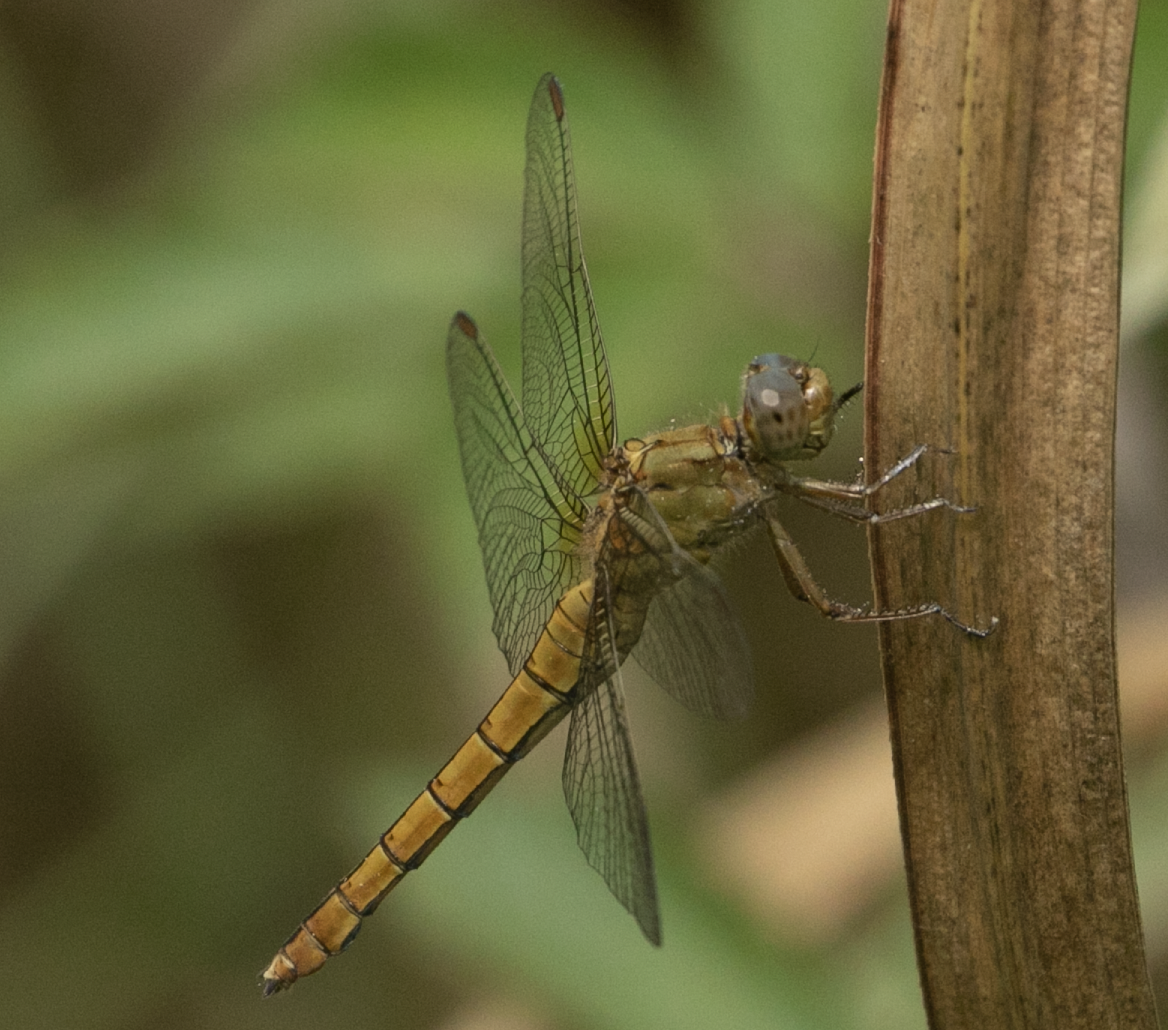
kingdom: Animalia
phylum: Arthropoda
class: Insecta
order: Odonata
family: Libellulidae
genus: Orthetrum
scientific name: Orthetrum coerulescens
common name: Keeled skimmer
